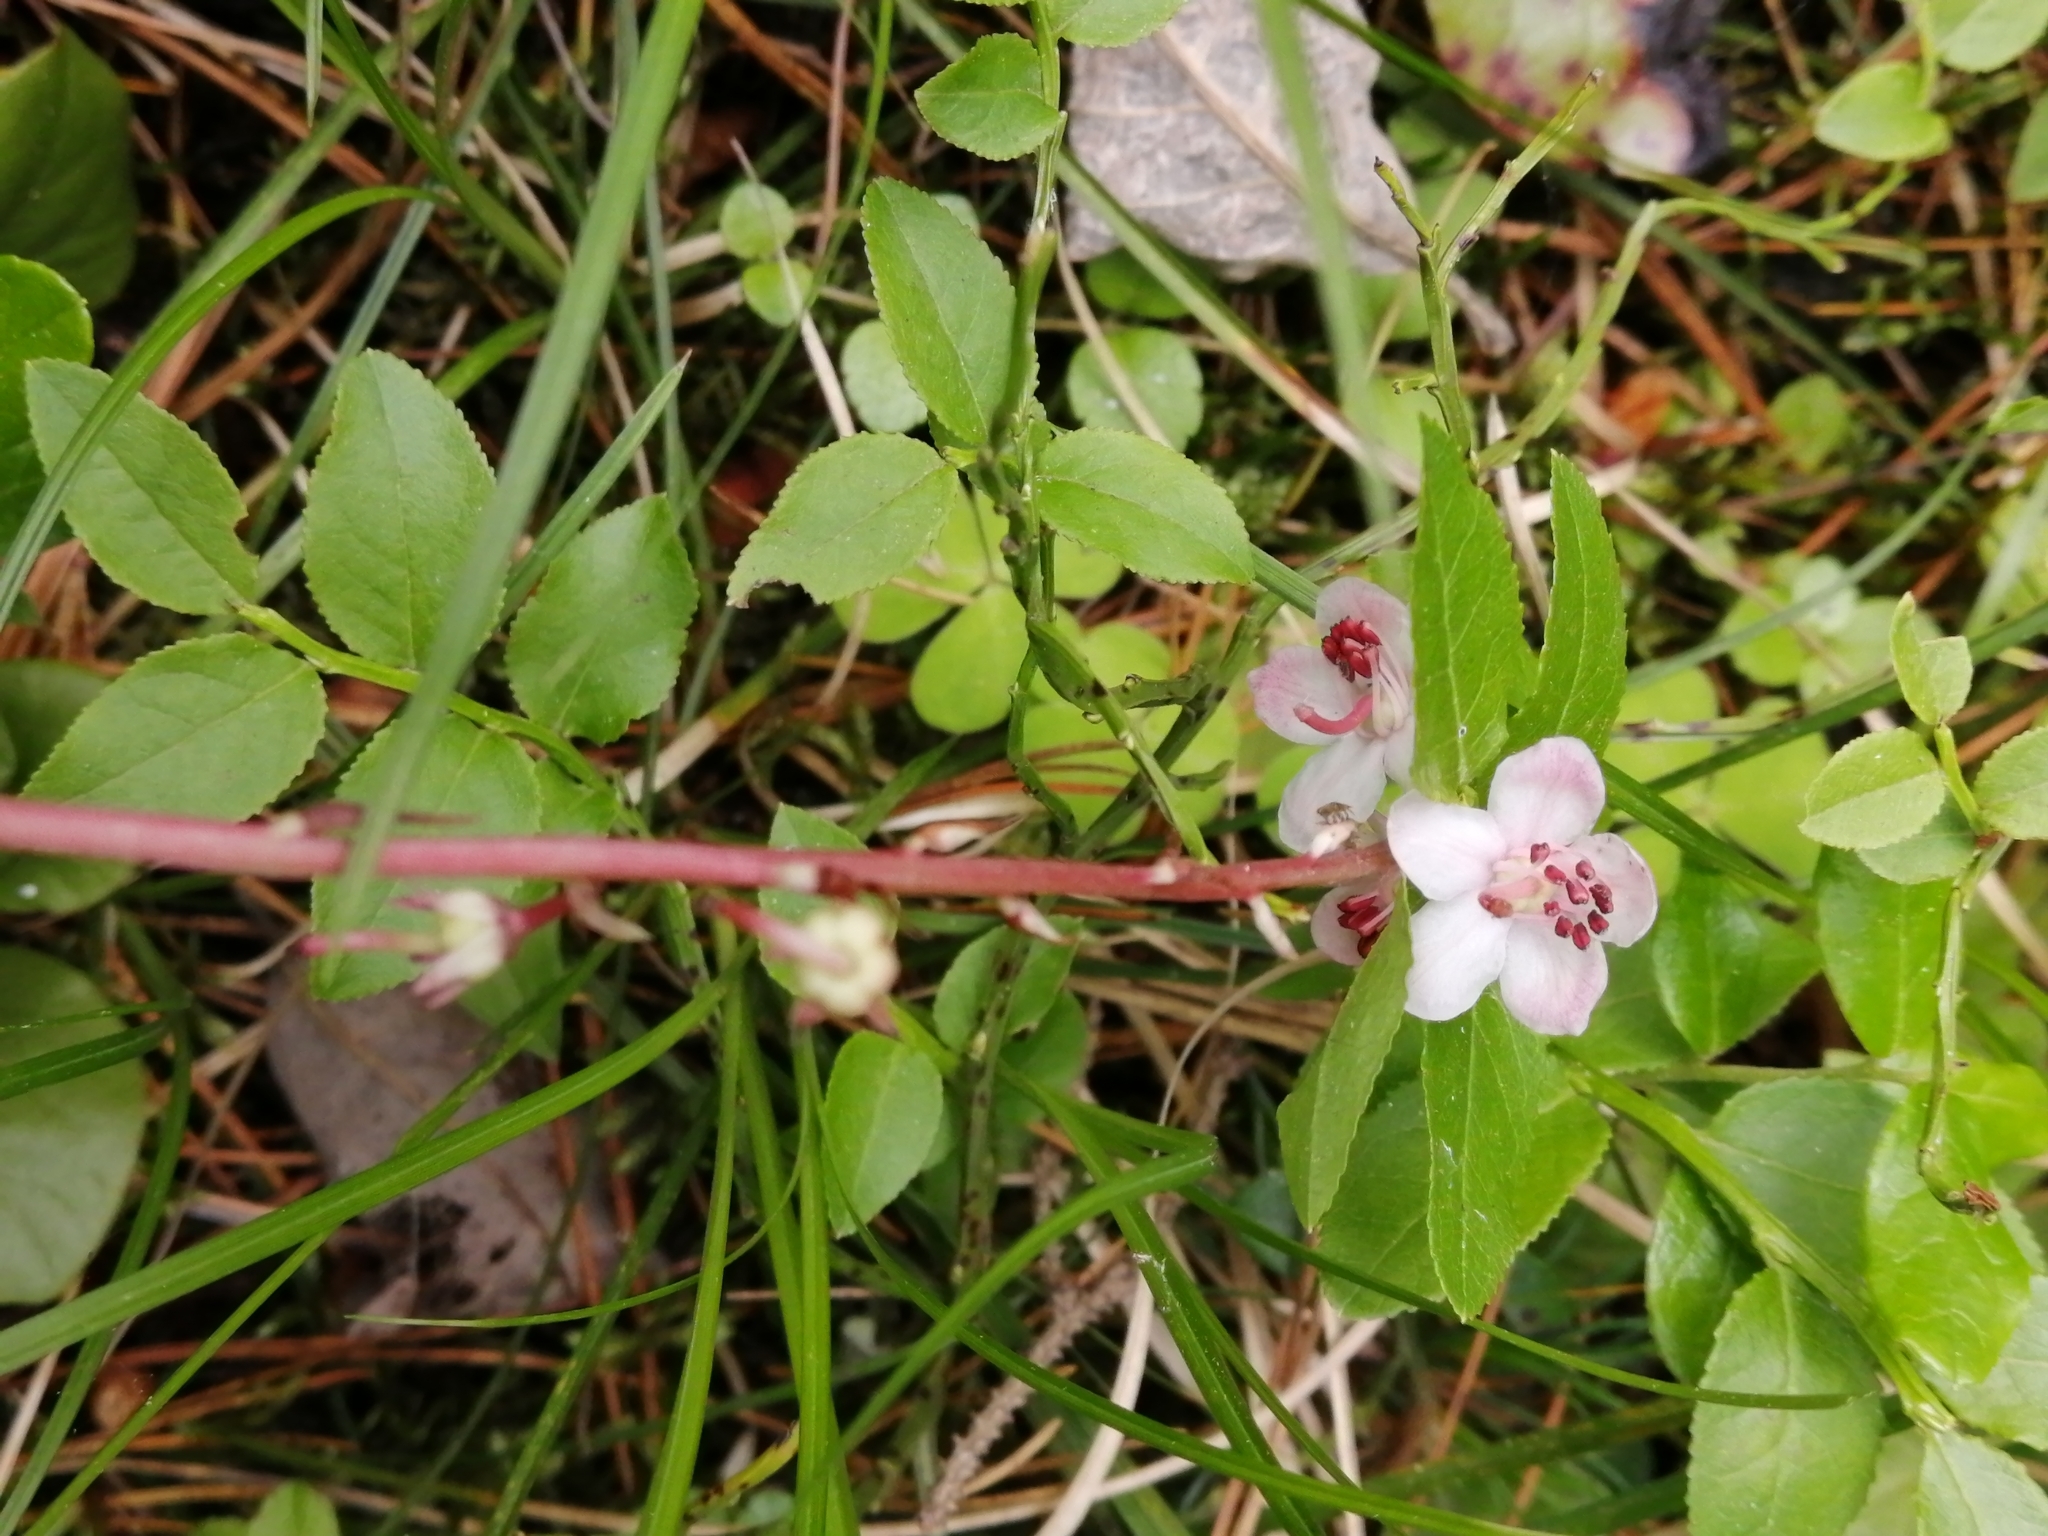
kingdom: Plantae
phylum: Tracheophyta
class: Magnoliopsida
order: Ericales
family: Ericaceae
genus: Pyrola
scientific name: Pyrola asarifolia
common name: Bog wintergreen
